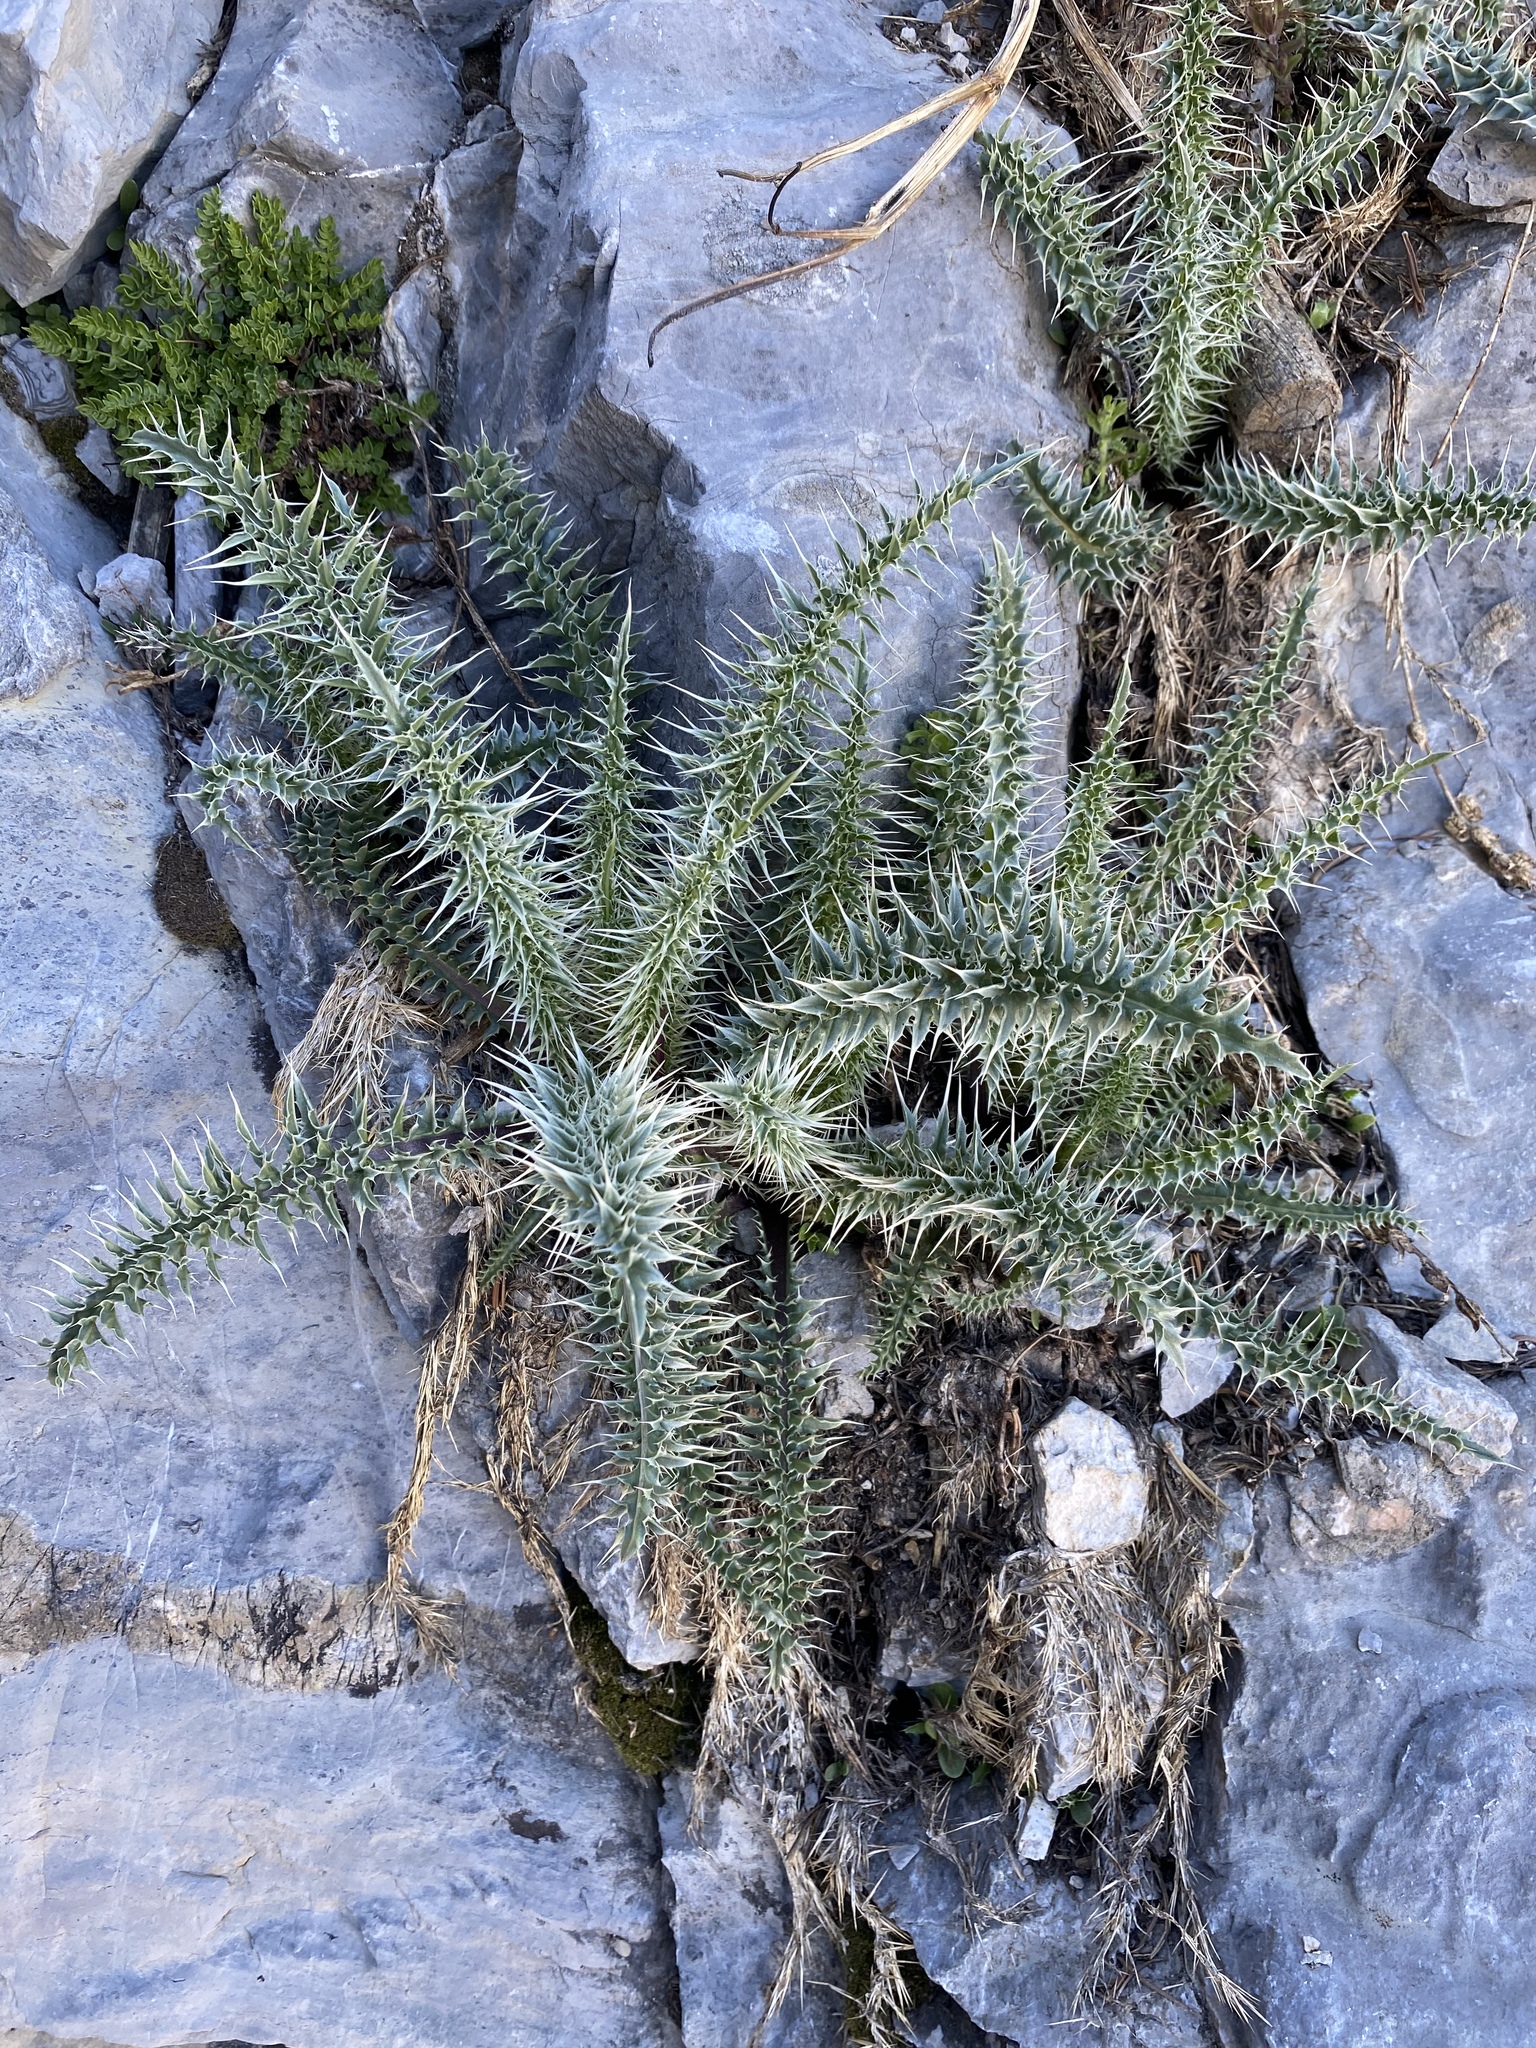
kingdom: Plantae
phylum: Tracheophyta
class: Magnoliopsida
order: Asterales
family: Asteraceae
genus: Cirsium
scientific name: Cirsium eatonii
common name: Eaton's thistle
